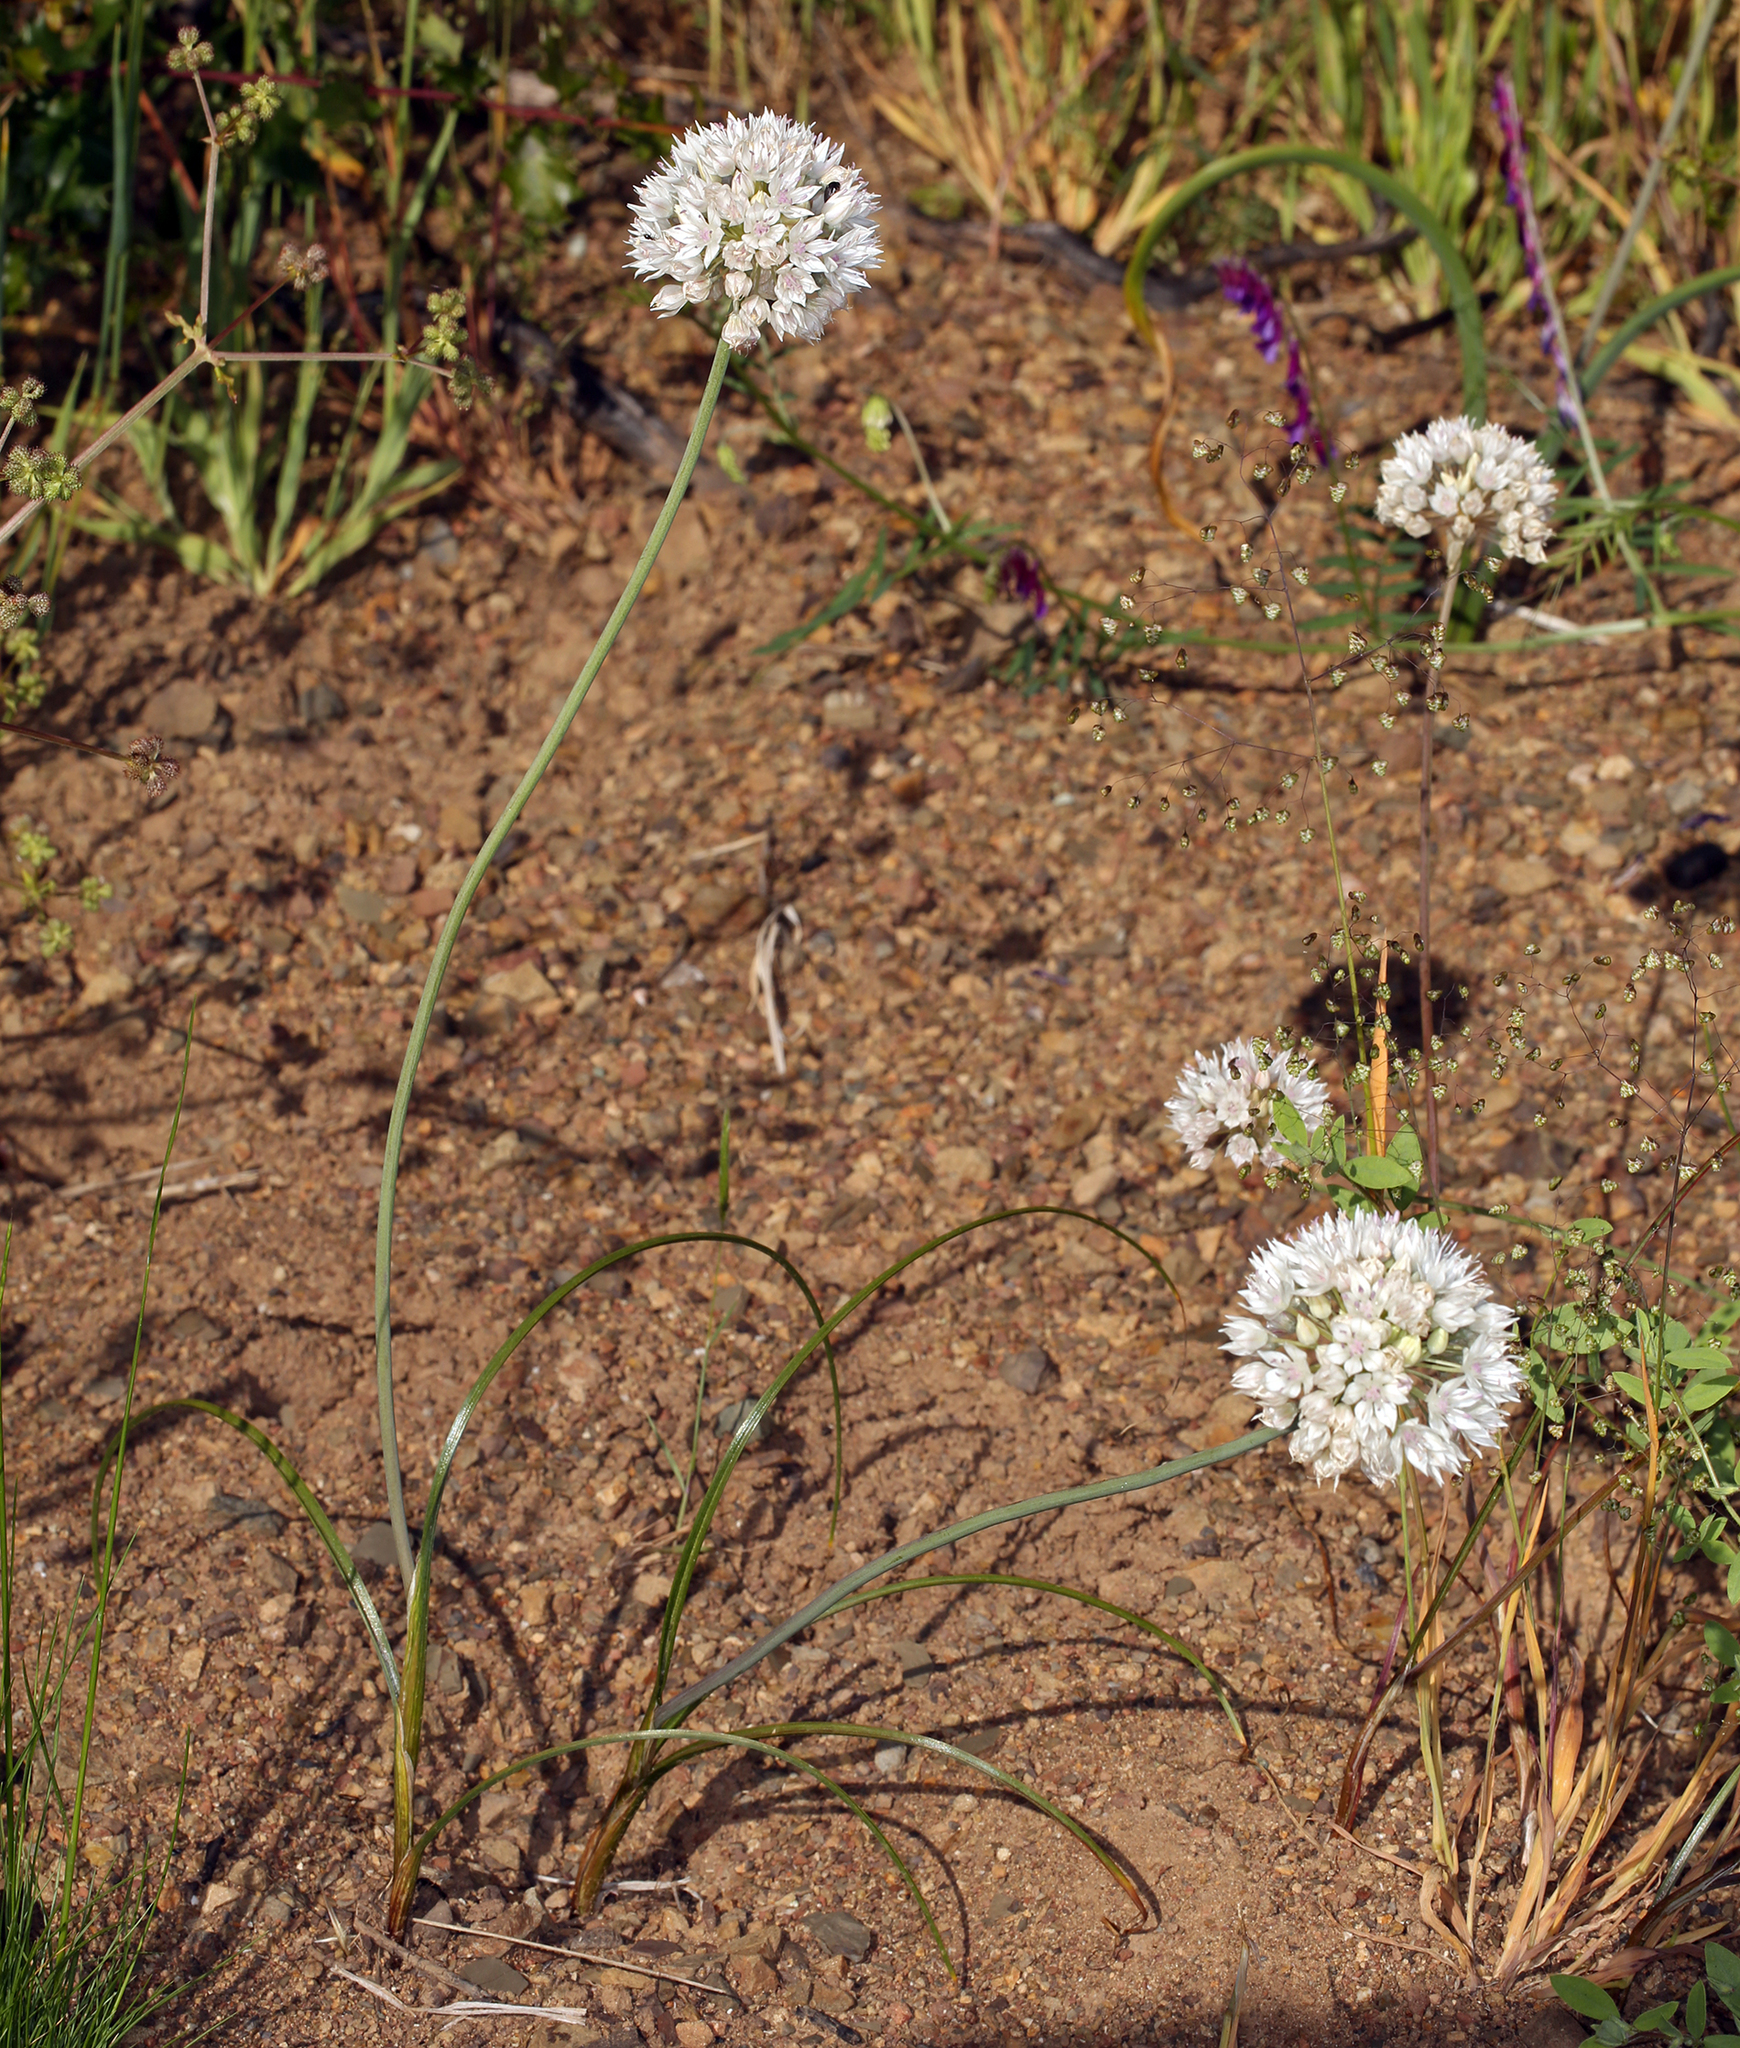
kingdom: Plantae
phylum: Tracheophyta
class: Liliopsida
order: Asparagales
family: Amaryllidaceae
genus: Allium
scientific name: Allium amplectens
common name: Narrow-leaved onion
